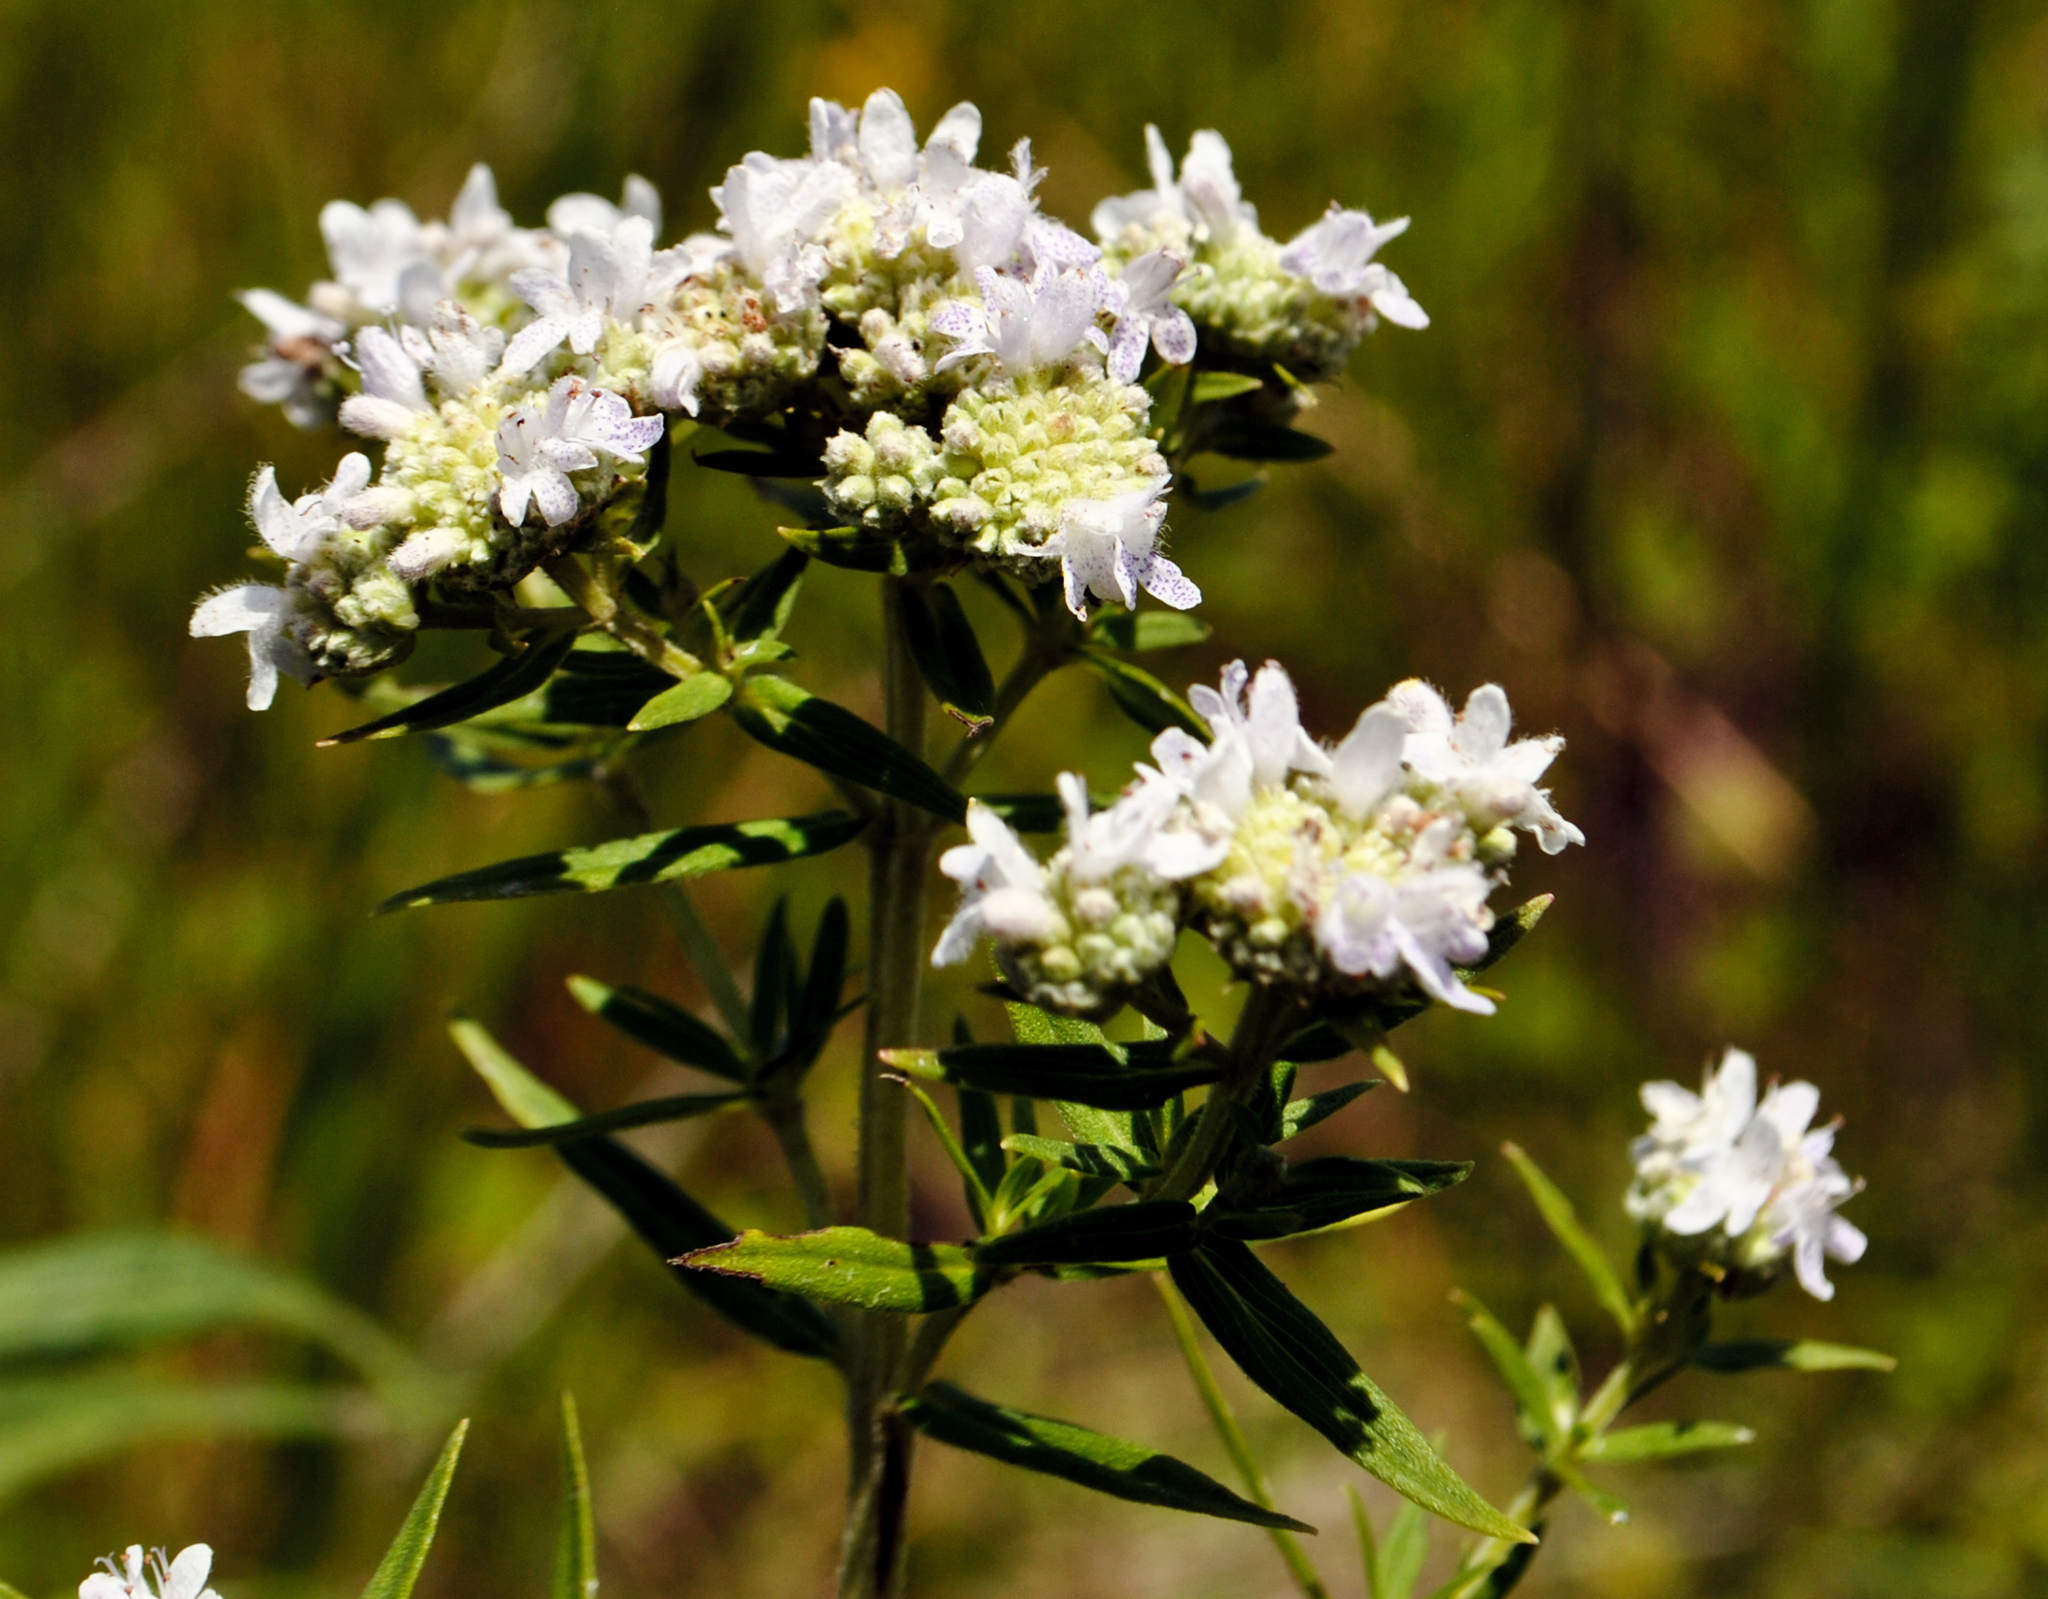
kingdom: Plantae
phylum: Tracheophyta
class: Magnoliopsida
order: Lamiales
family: Lamiaceae
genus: Pycnanthemum
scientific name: Pycnanthemum virginianum
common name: Virginia mountain-mint
